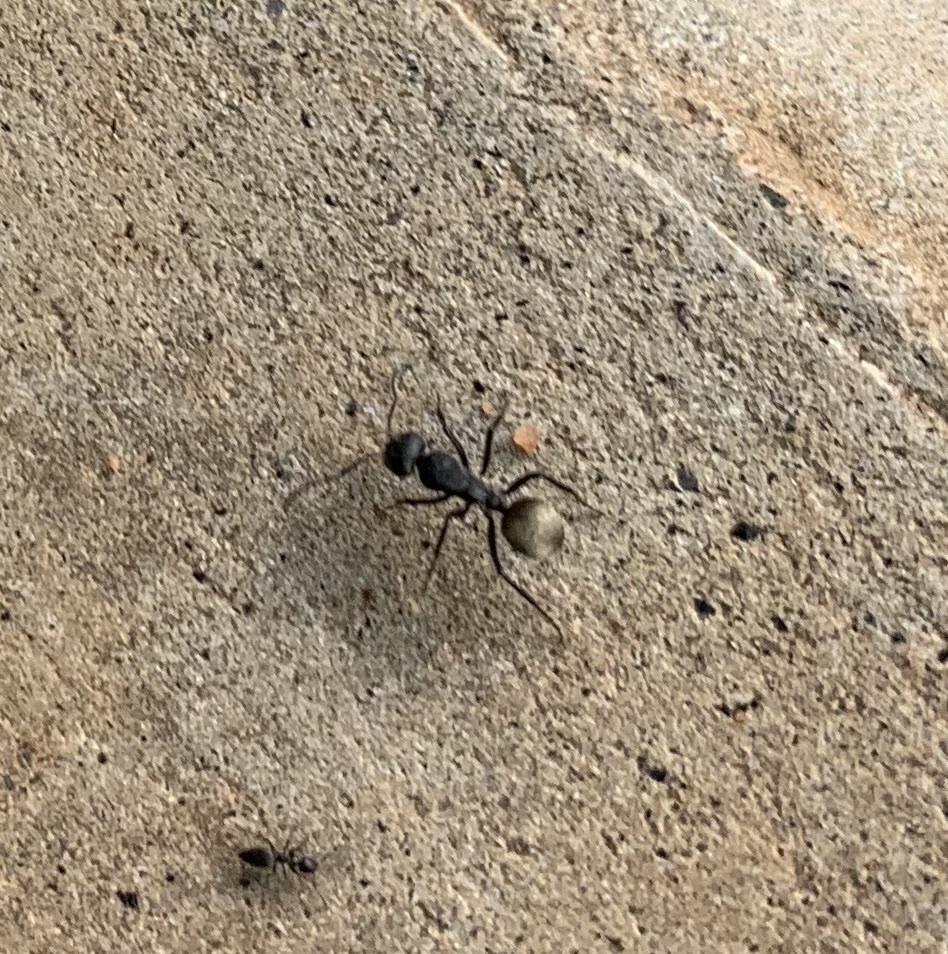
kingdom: Animalia
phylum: Arthropoda
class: Insecta
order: Hymenoptera
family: Formicidae
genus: Camponotus
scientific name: Camponotus sericeus
